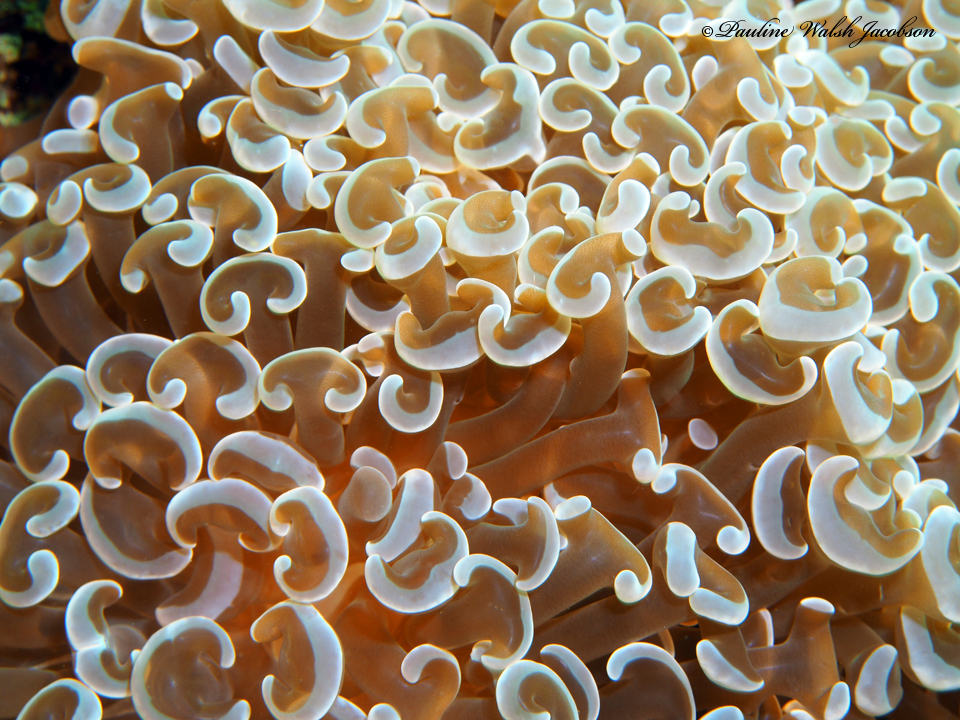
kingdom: Animalia
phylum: Cnidaria
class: Anthozoa
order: Scleractinia
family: Euphylliidae
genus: Fimbriaphyllia
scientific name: Fimbriaphyllia ancora
